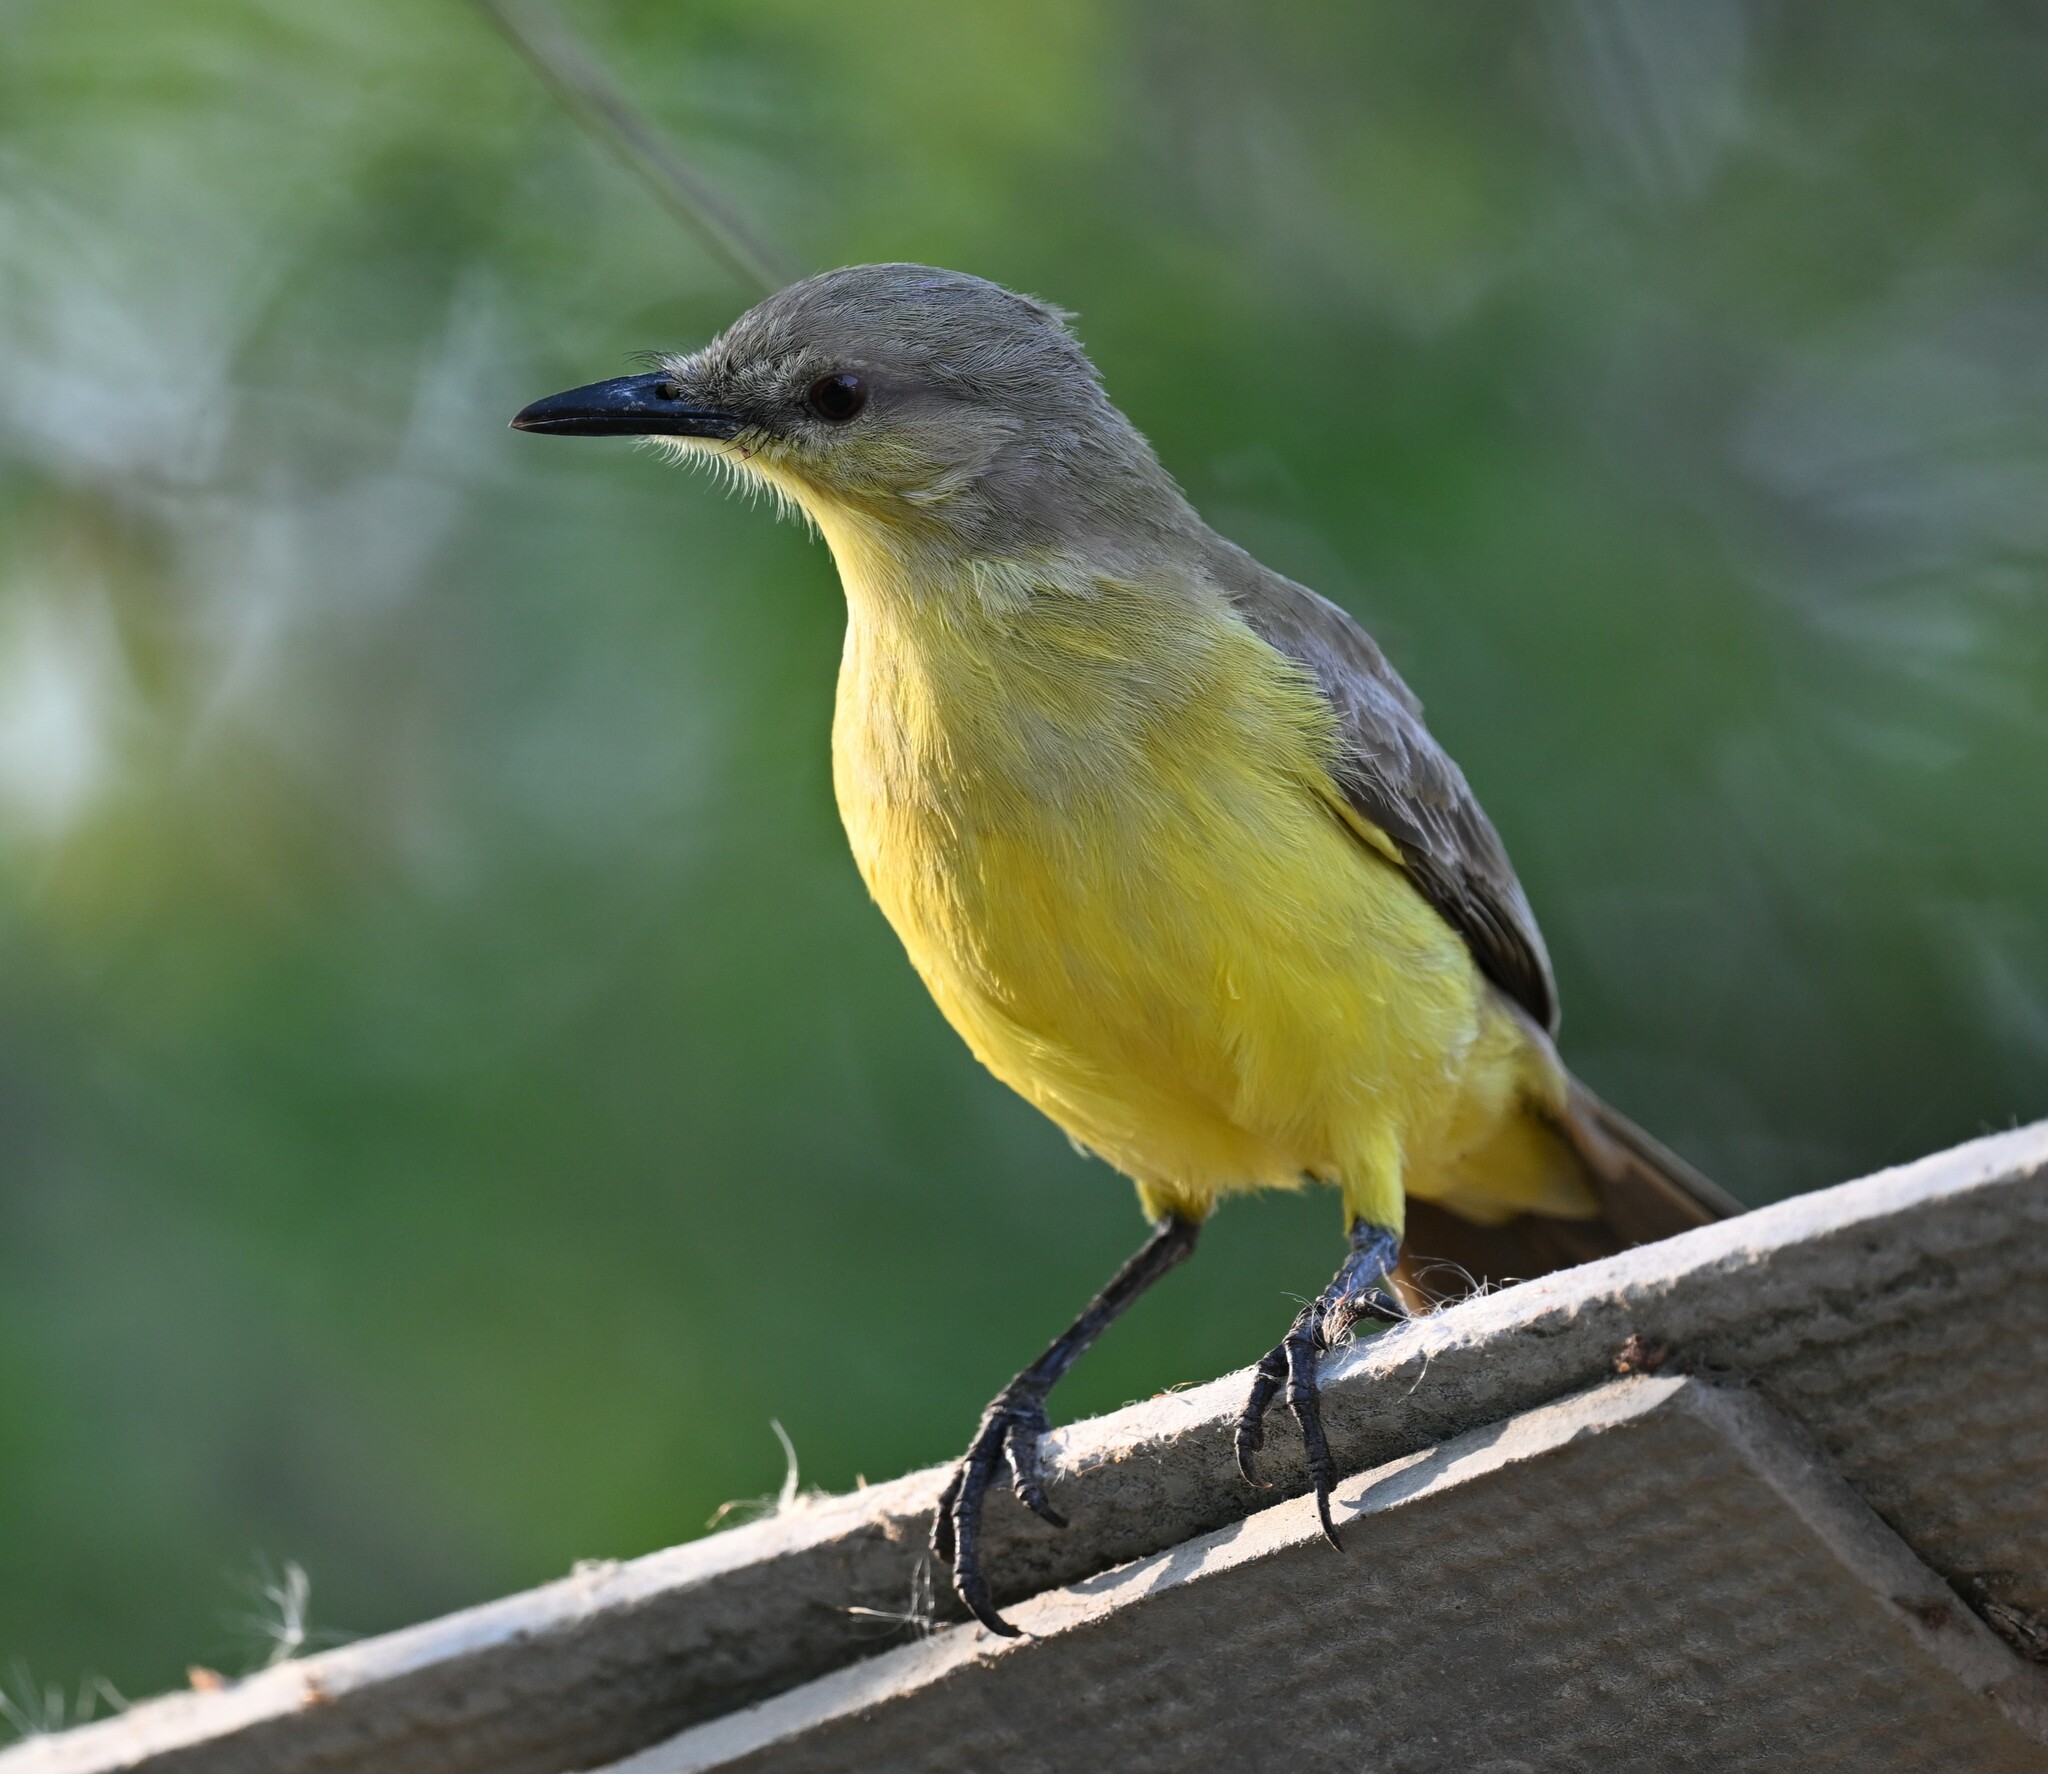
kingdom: Animalia
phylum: Chordata
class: Aves
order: Passeriformes
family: Tyrannidae
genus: Machetornis
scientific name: Machetornis rixosa
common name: Cattle tyrant
